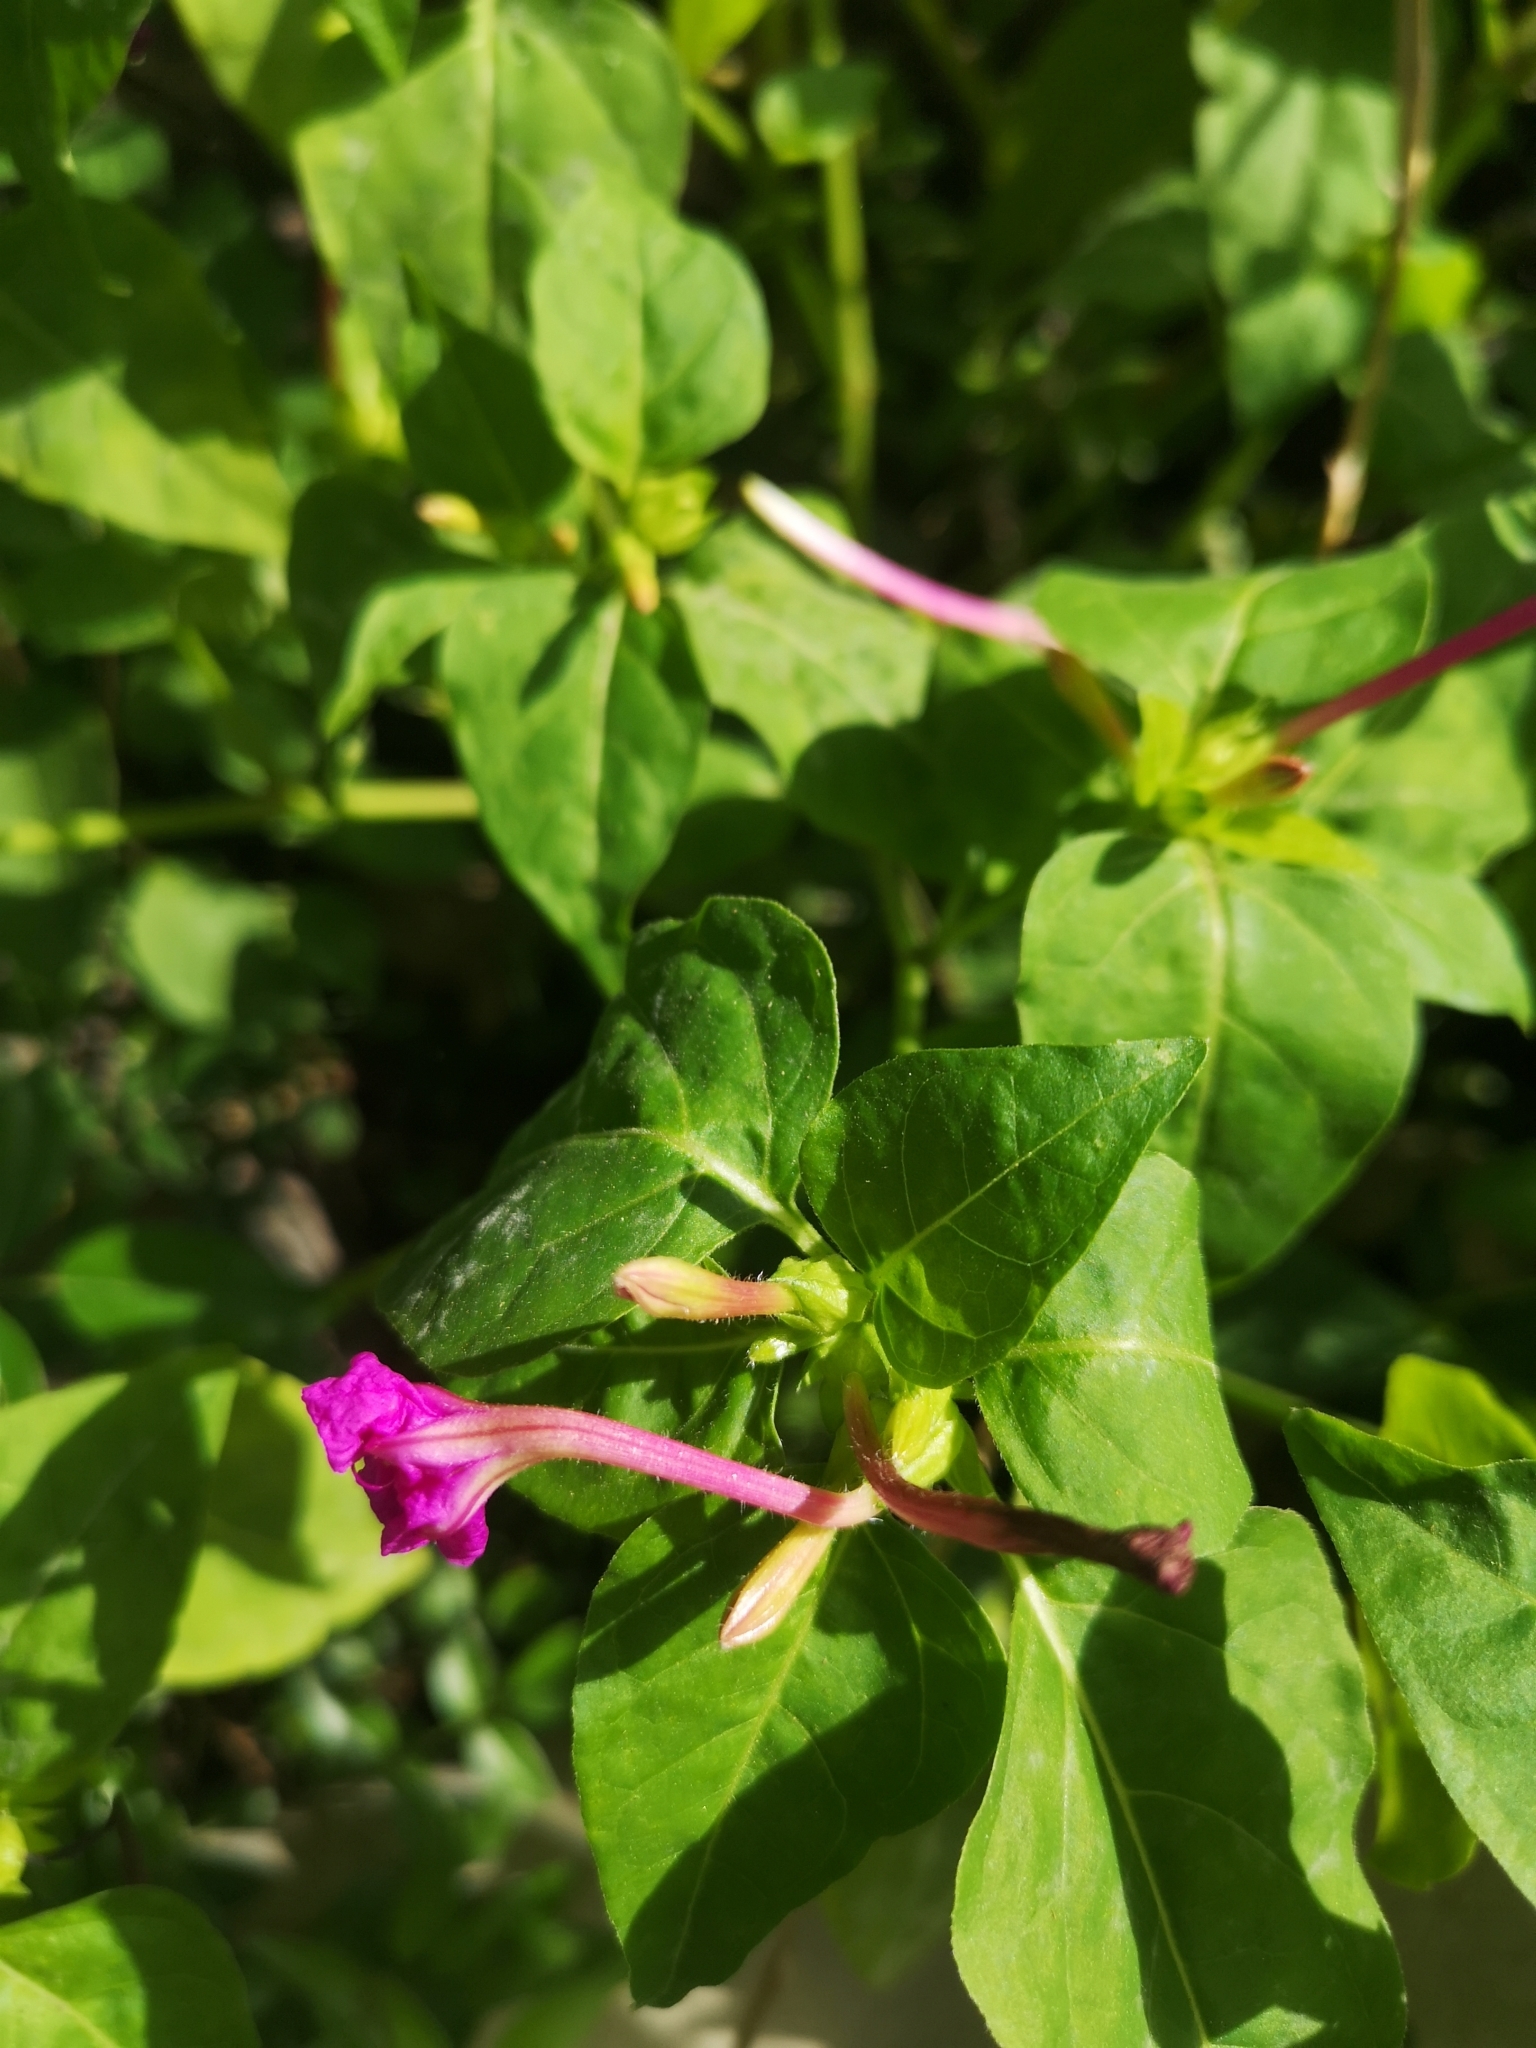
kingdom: Plantae
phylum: Tracheophyta
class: Magnoliopsida
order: Caryophyllales
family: Nyctaginaceae
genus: Mirabilis
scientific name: Mirabilis jalapa
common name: Marvel-of-peru
